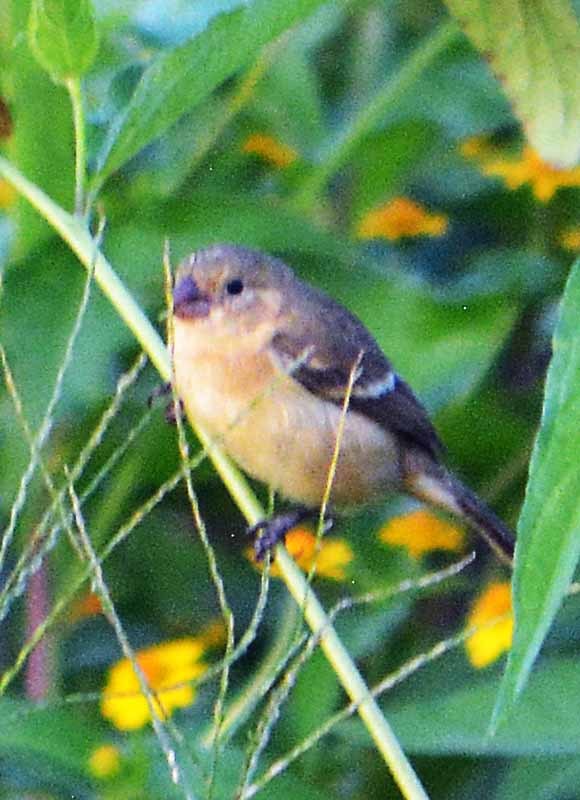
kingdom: Animalia
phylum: Chordata
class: Aves
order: Passeriformes
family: Thraupidae
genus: Sporophila
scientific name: Sporophila morelleti
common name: Morelet's seedeater
